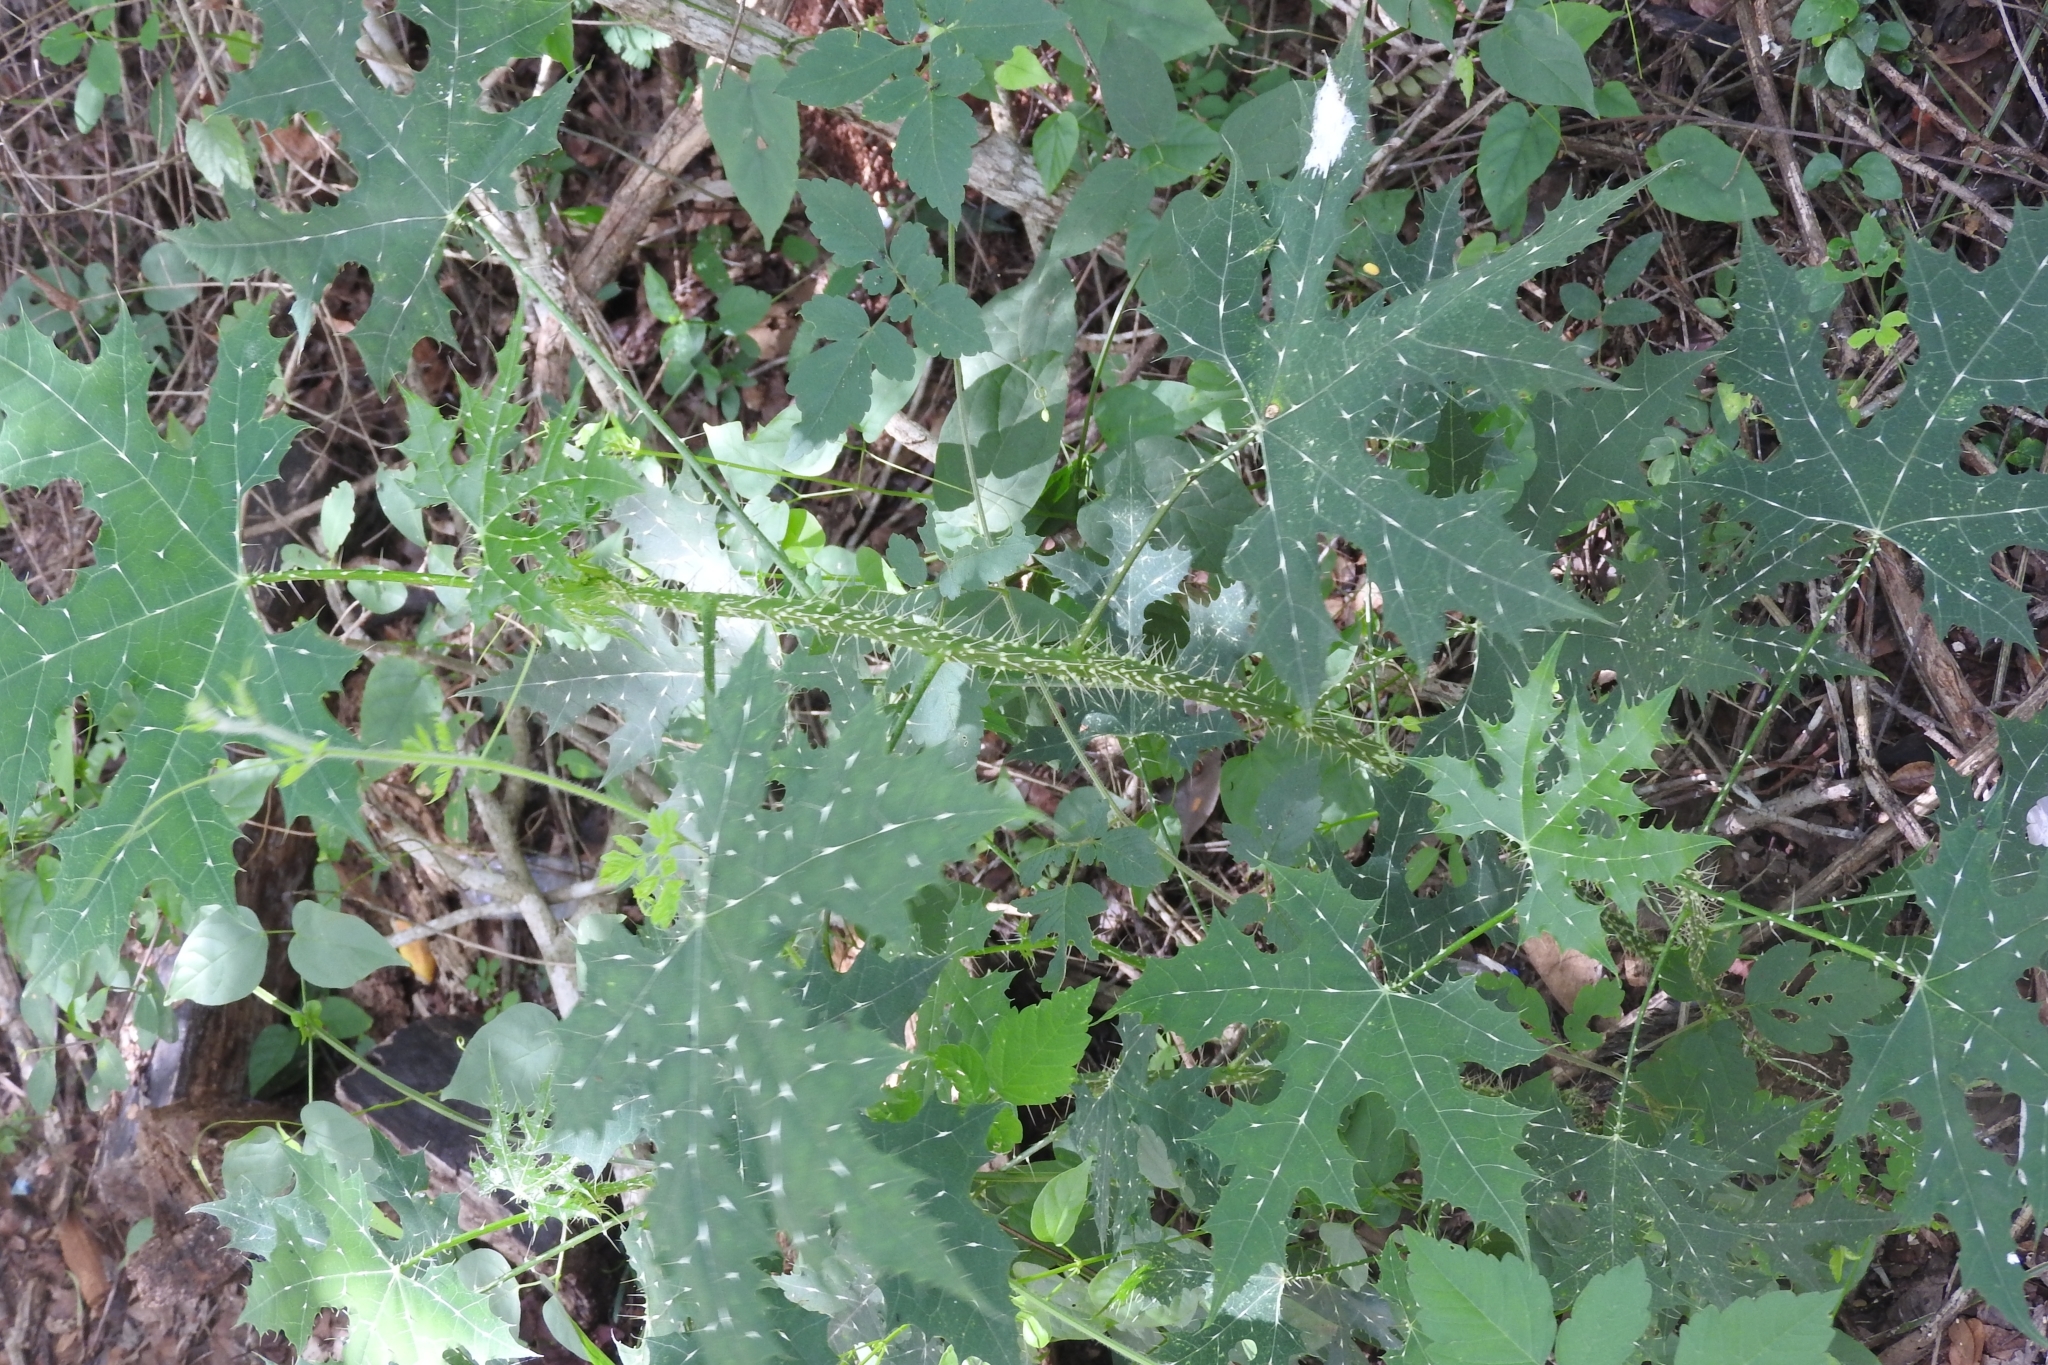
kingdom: Plantae
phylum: Tracheophyta
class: Magnoliopsida
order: Malpighiales
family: Euphorbiaceae
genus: Cnidoscolus
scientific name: Cnidoscolus souzae
